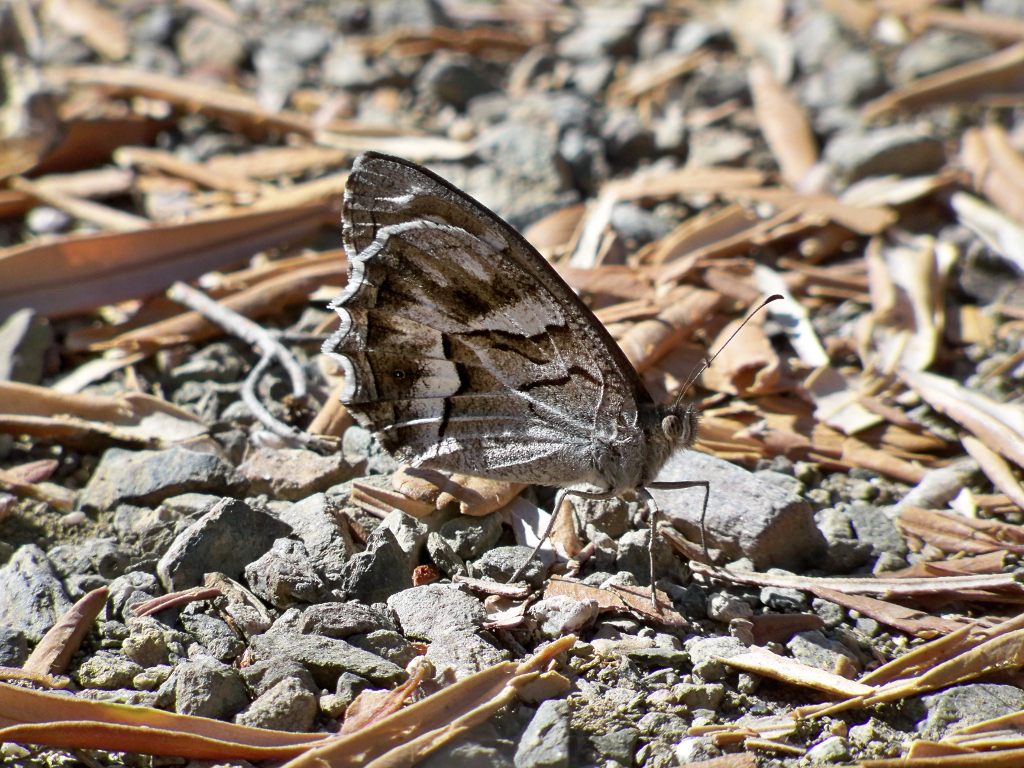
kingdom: Animalia
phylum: Arthropoda
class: Insecta
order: Lepidoptera
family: Nymphalidae
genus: Hipparchia
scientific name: Hipparchia fidia
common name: Striped grayling
